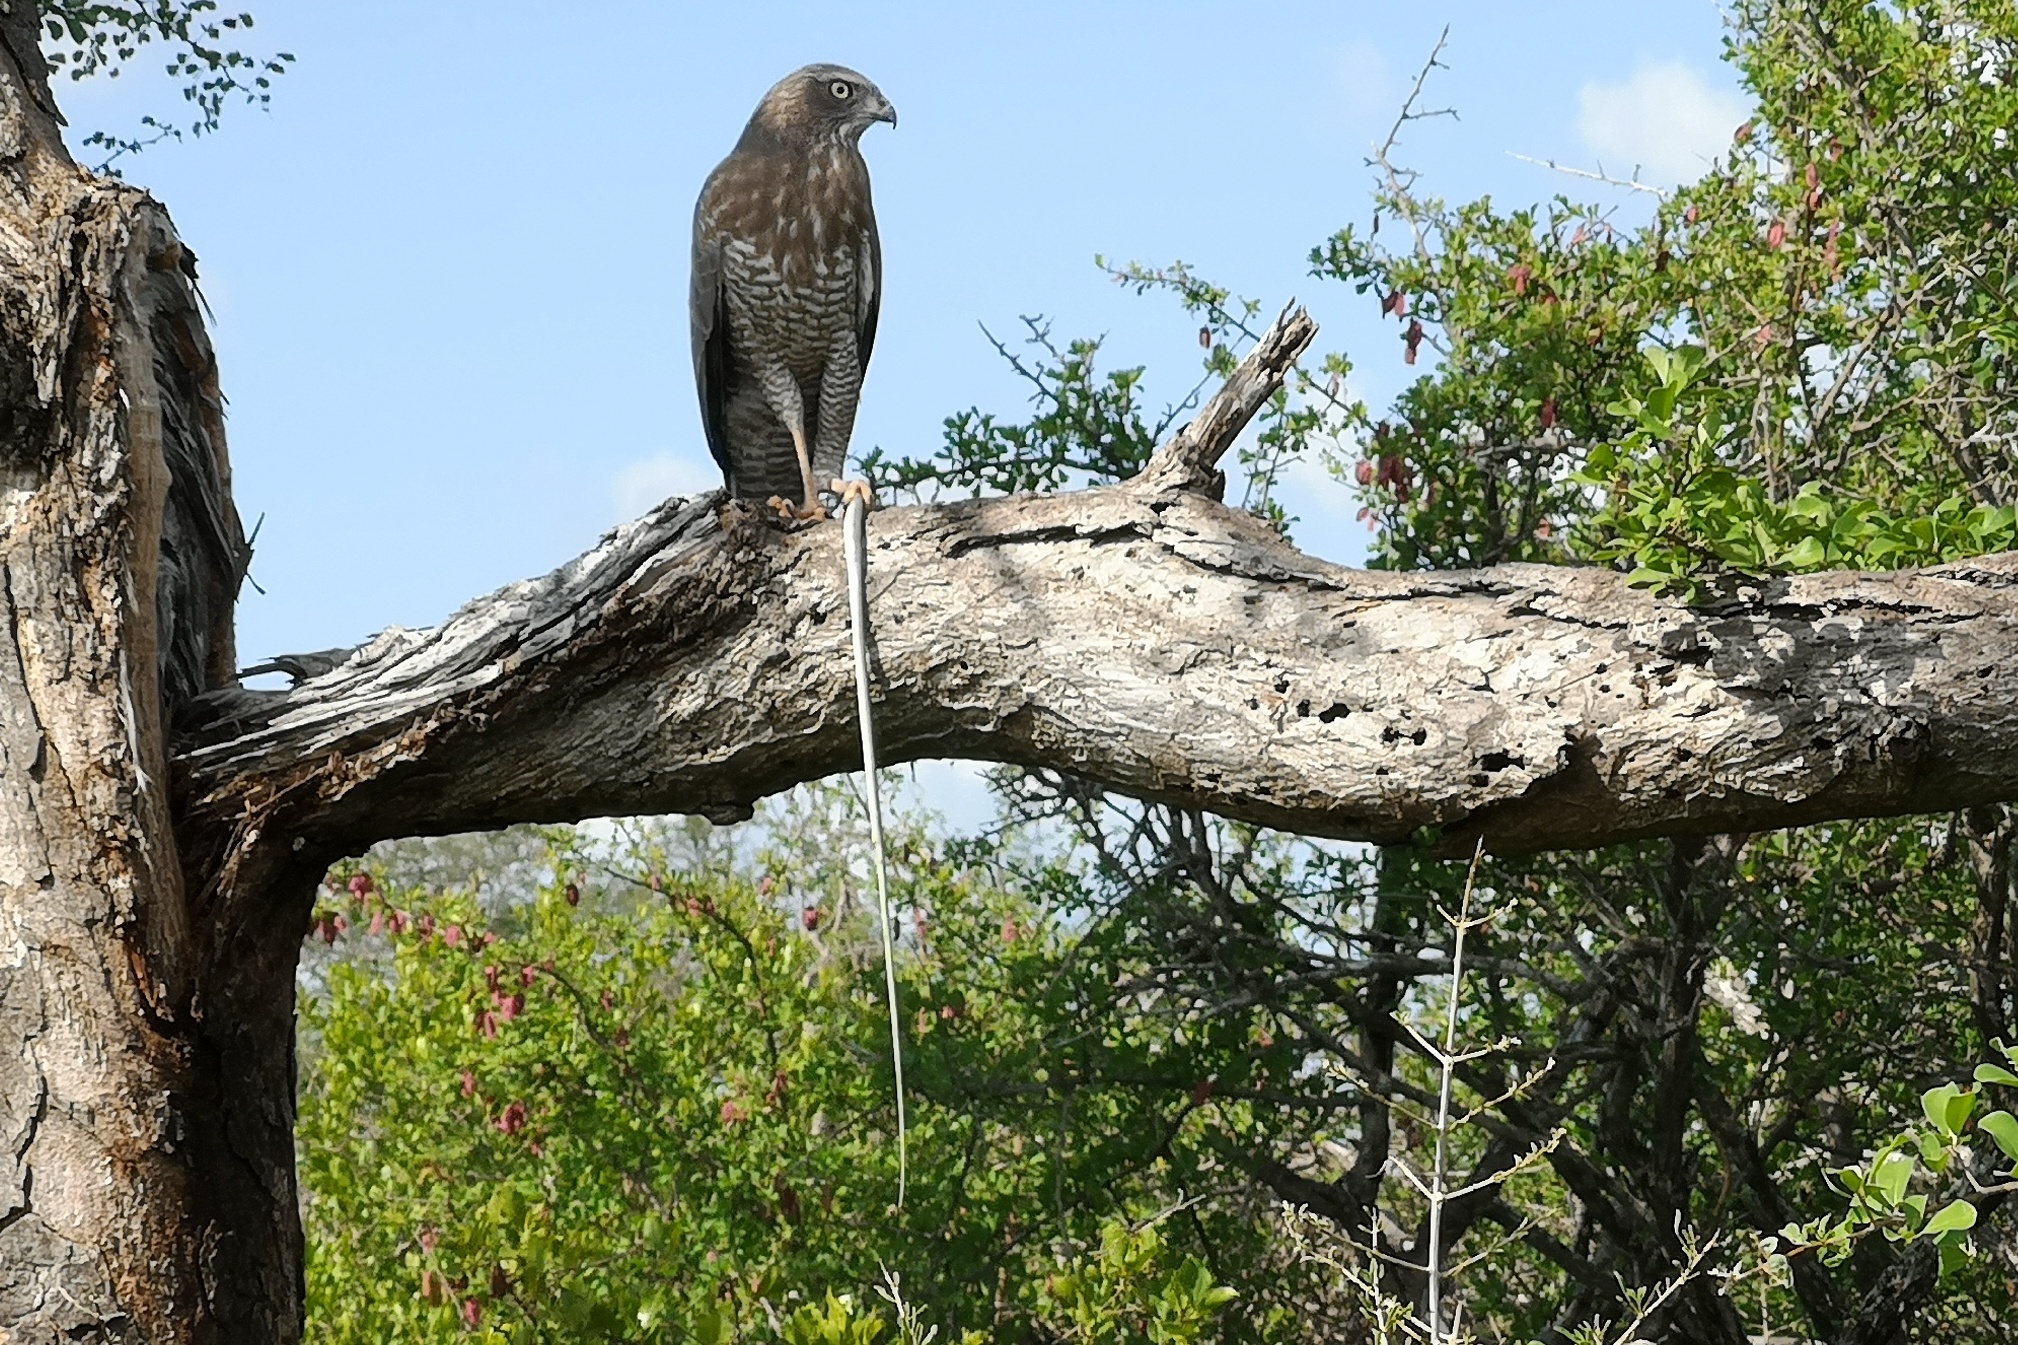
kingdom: Animalia
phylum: Chordata
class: Aves
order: Accipitriformes
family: Accipitridae
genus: Melierax
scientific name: Melierax metabates
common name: Dark chanting-goshawk
